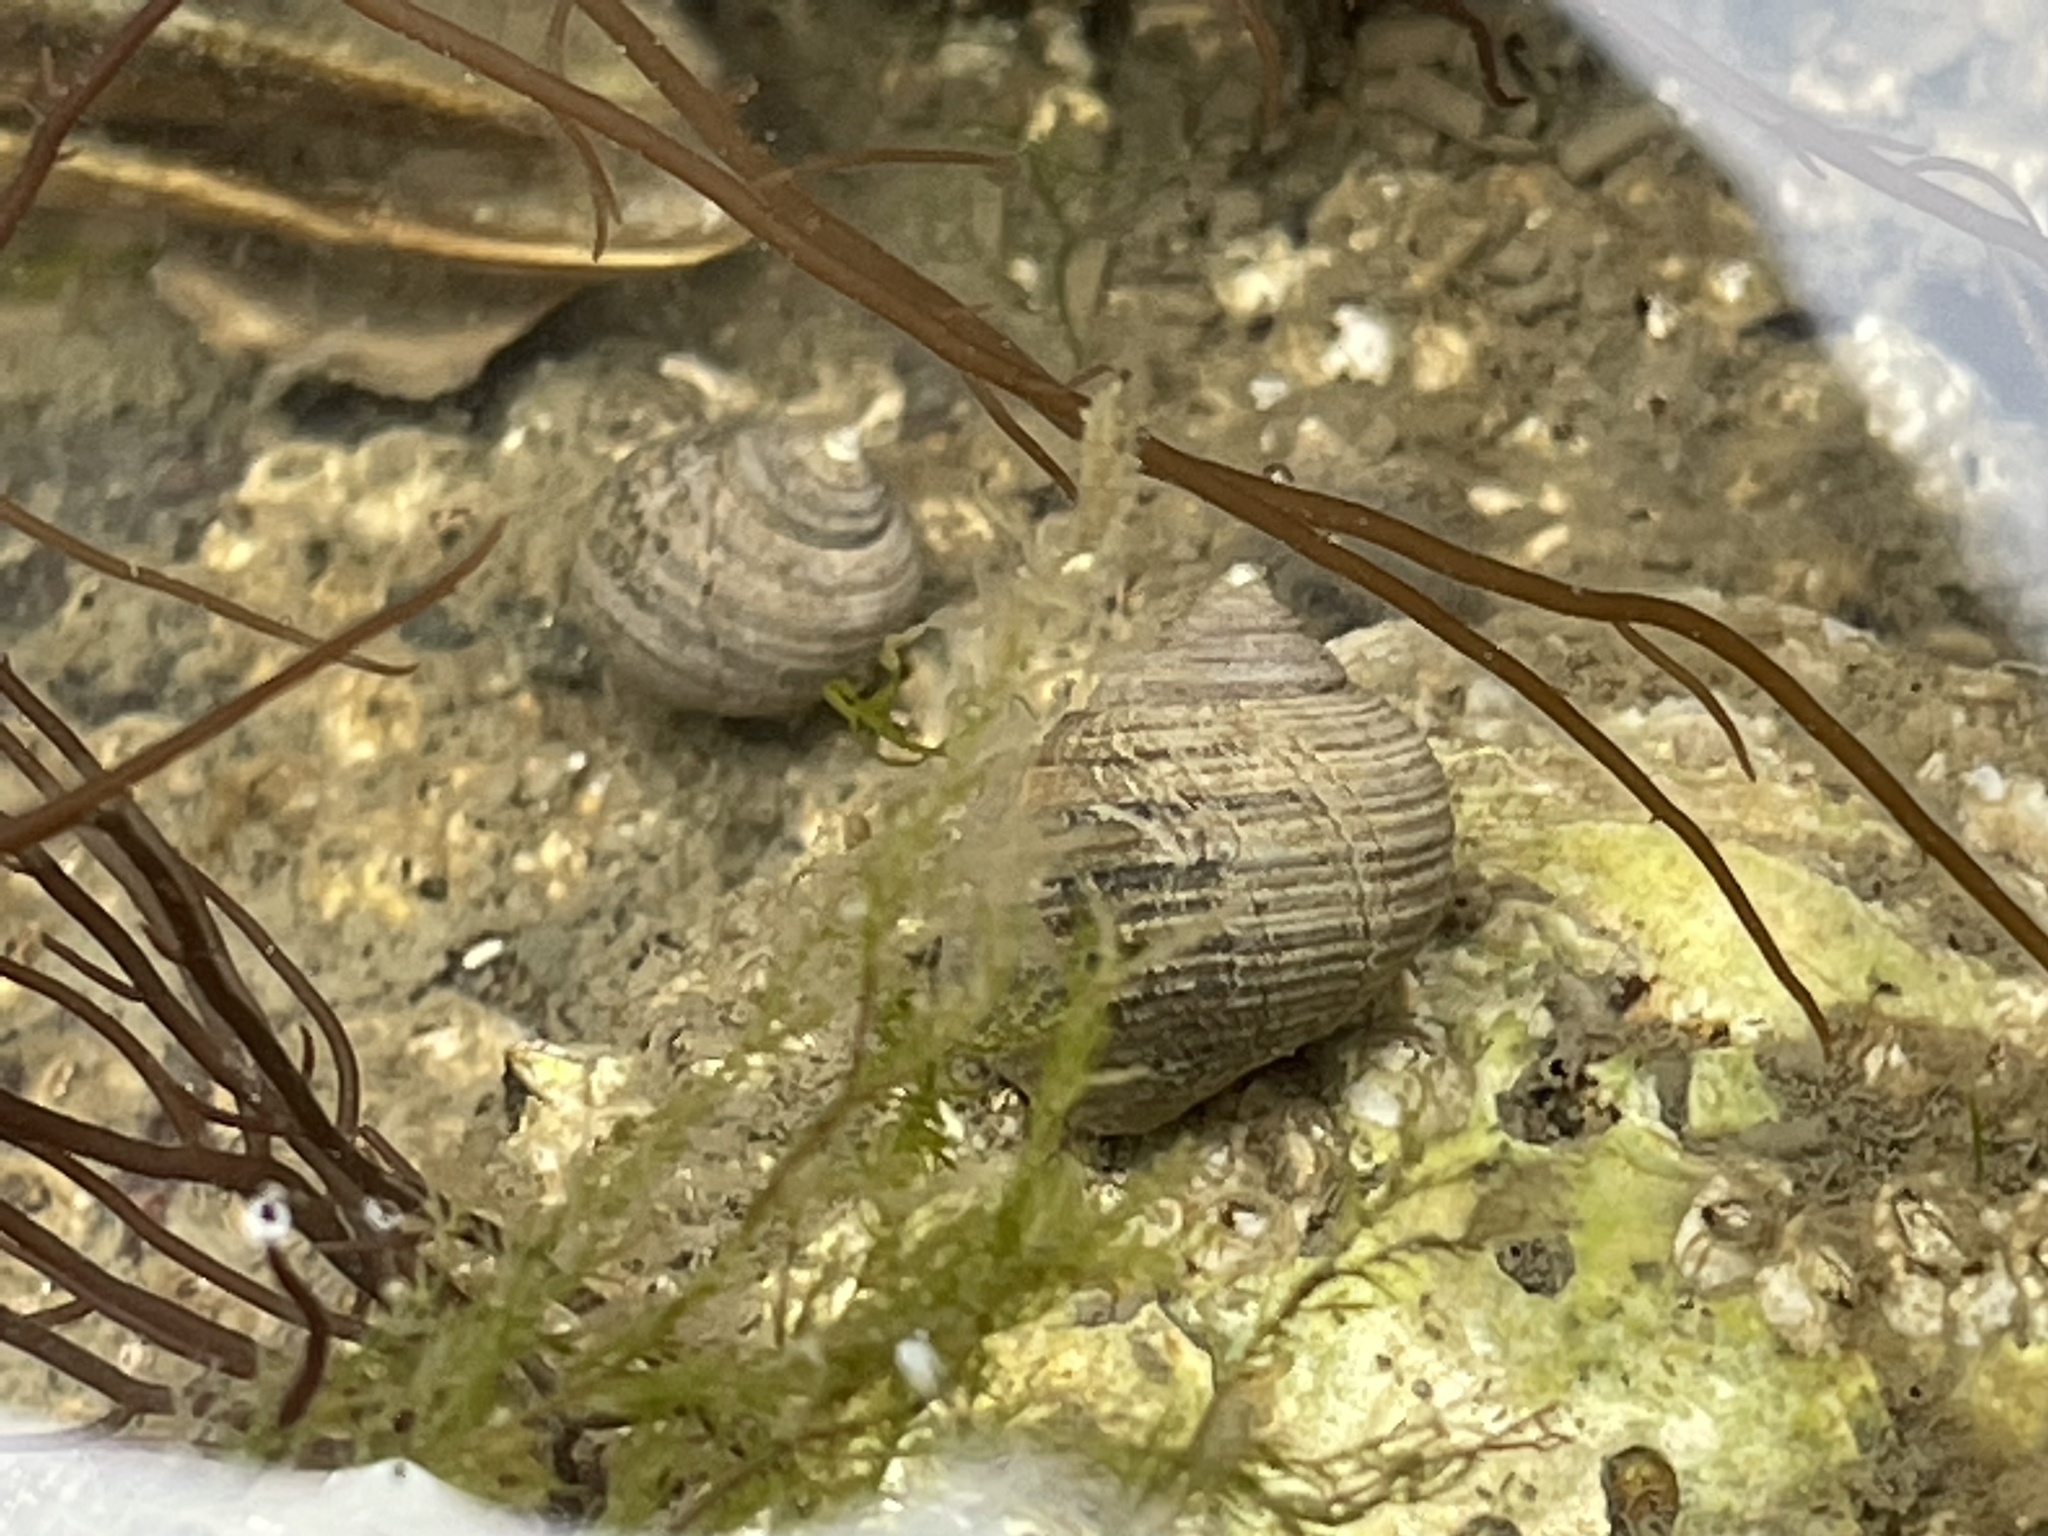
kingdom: Animalia
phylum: Mollusca
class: Gastropoda
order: Littorinimorpha
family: Littorinidae
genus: Littorina
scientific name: Littorina littorea
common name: Common periwinkle
